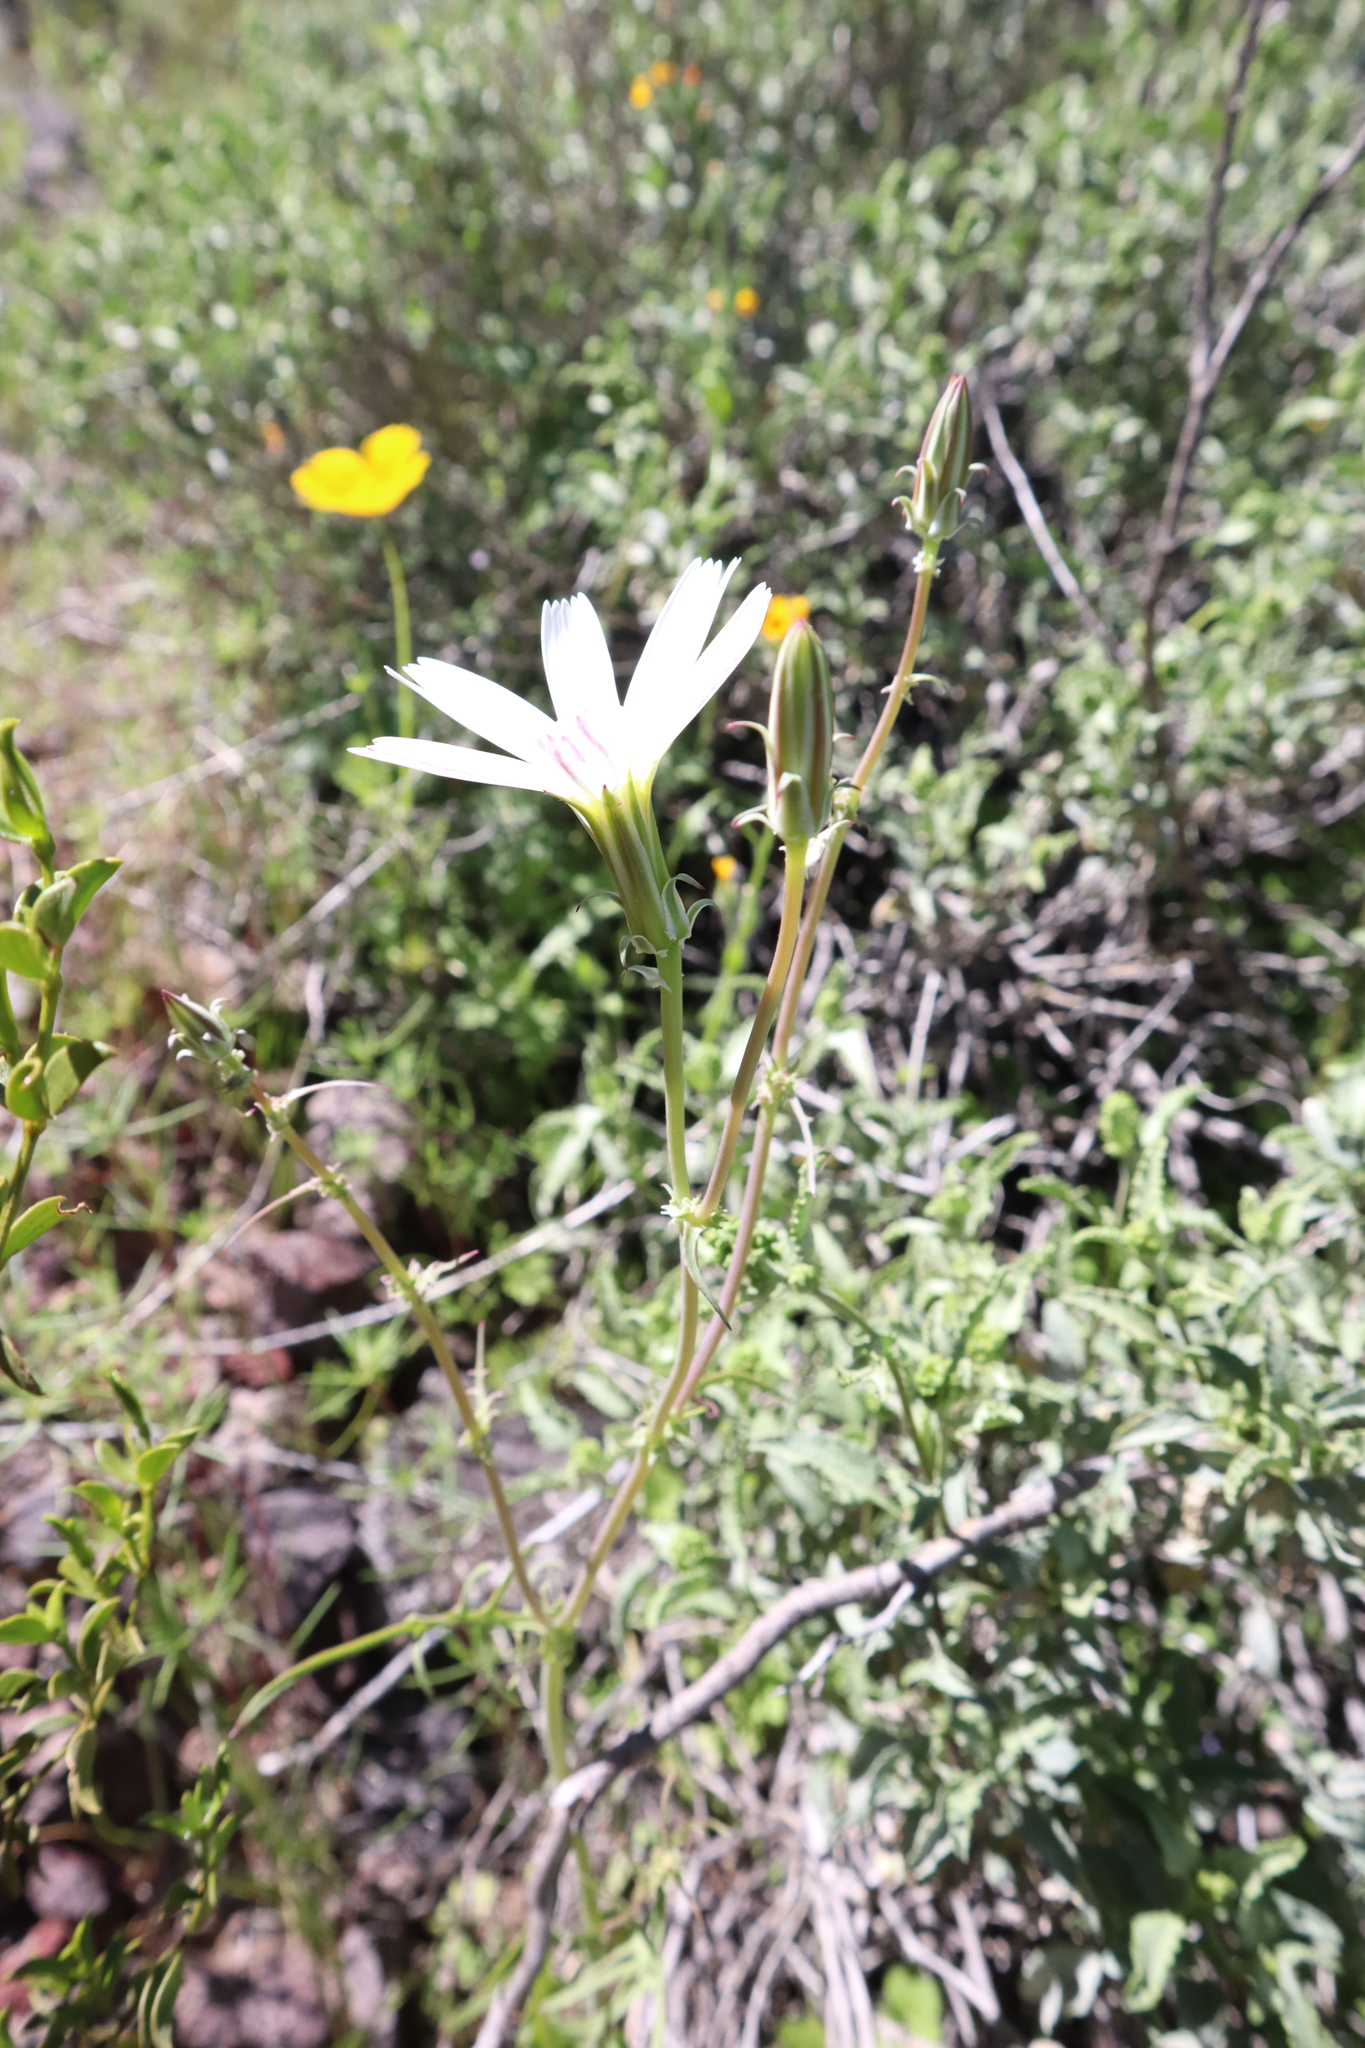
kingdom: Plantae
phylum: Tracheophyta
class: Magnoliopsida
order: Asterales
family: Asteraceae
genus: Rafinesquia
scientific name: Rafinesquia neomexicana
